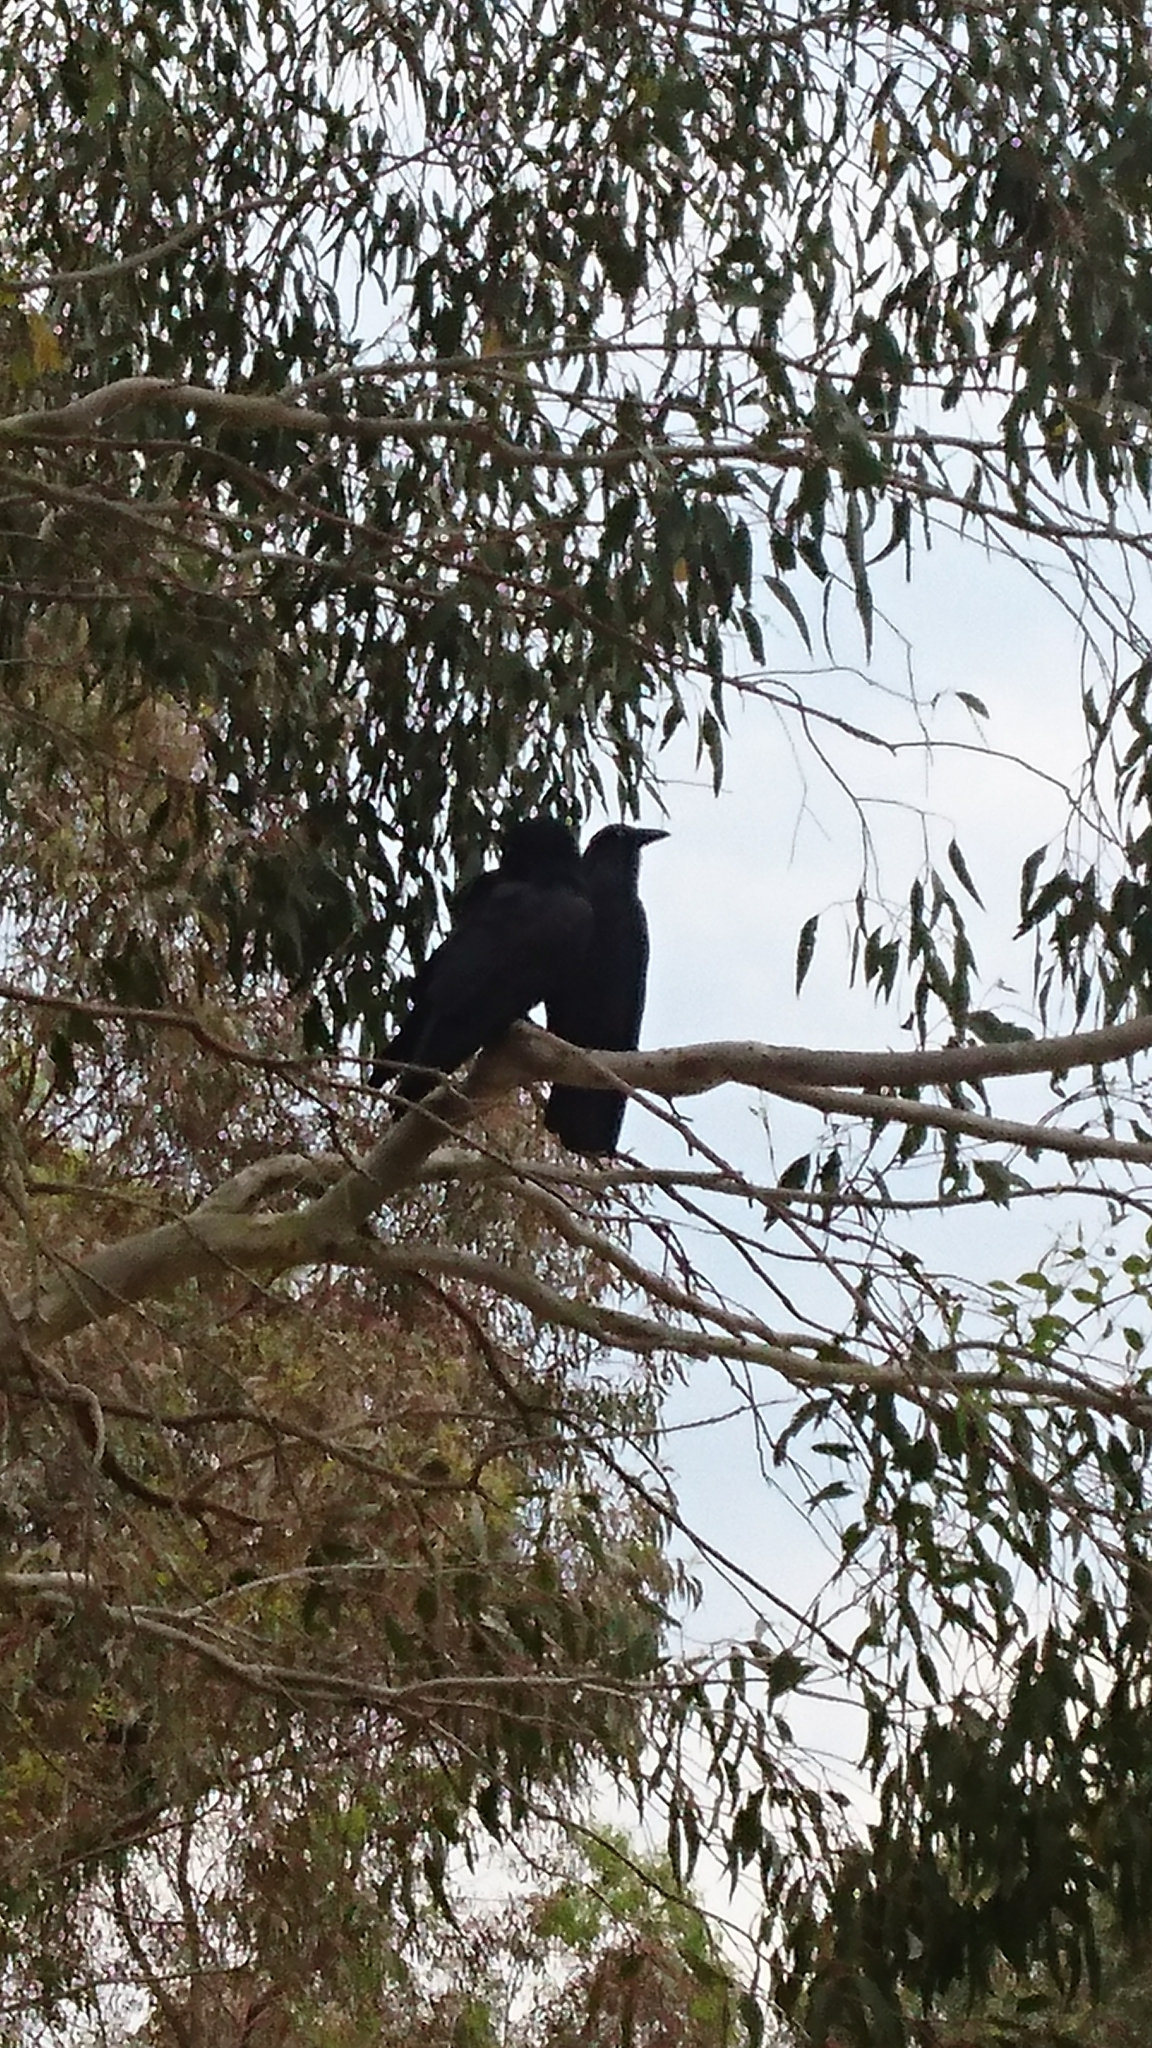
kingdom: Animalia
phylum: Chordata
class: Aves
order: Passeriformes
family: Corvidae
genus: Corvus
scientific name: Corvus coronoides
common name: Australian raven
